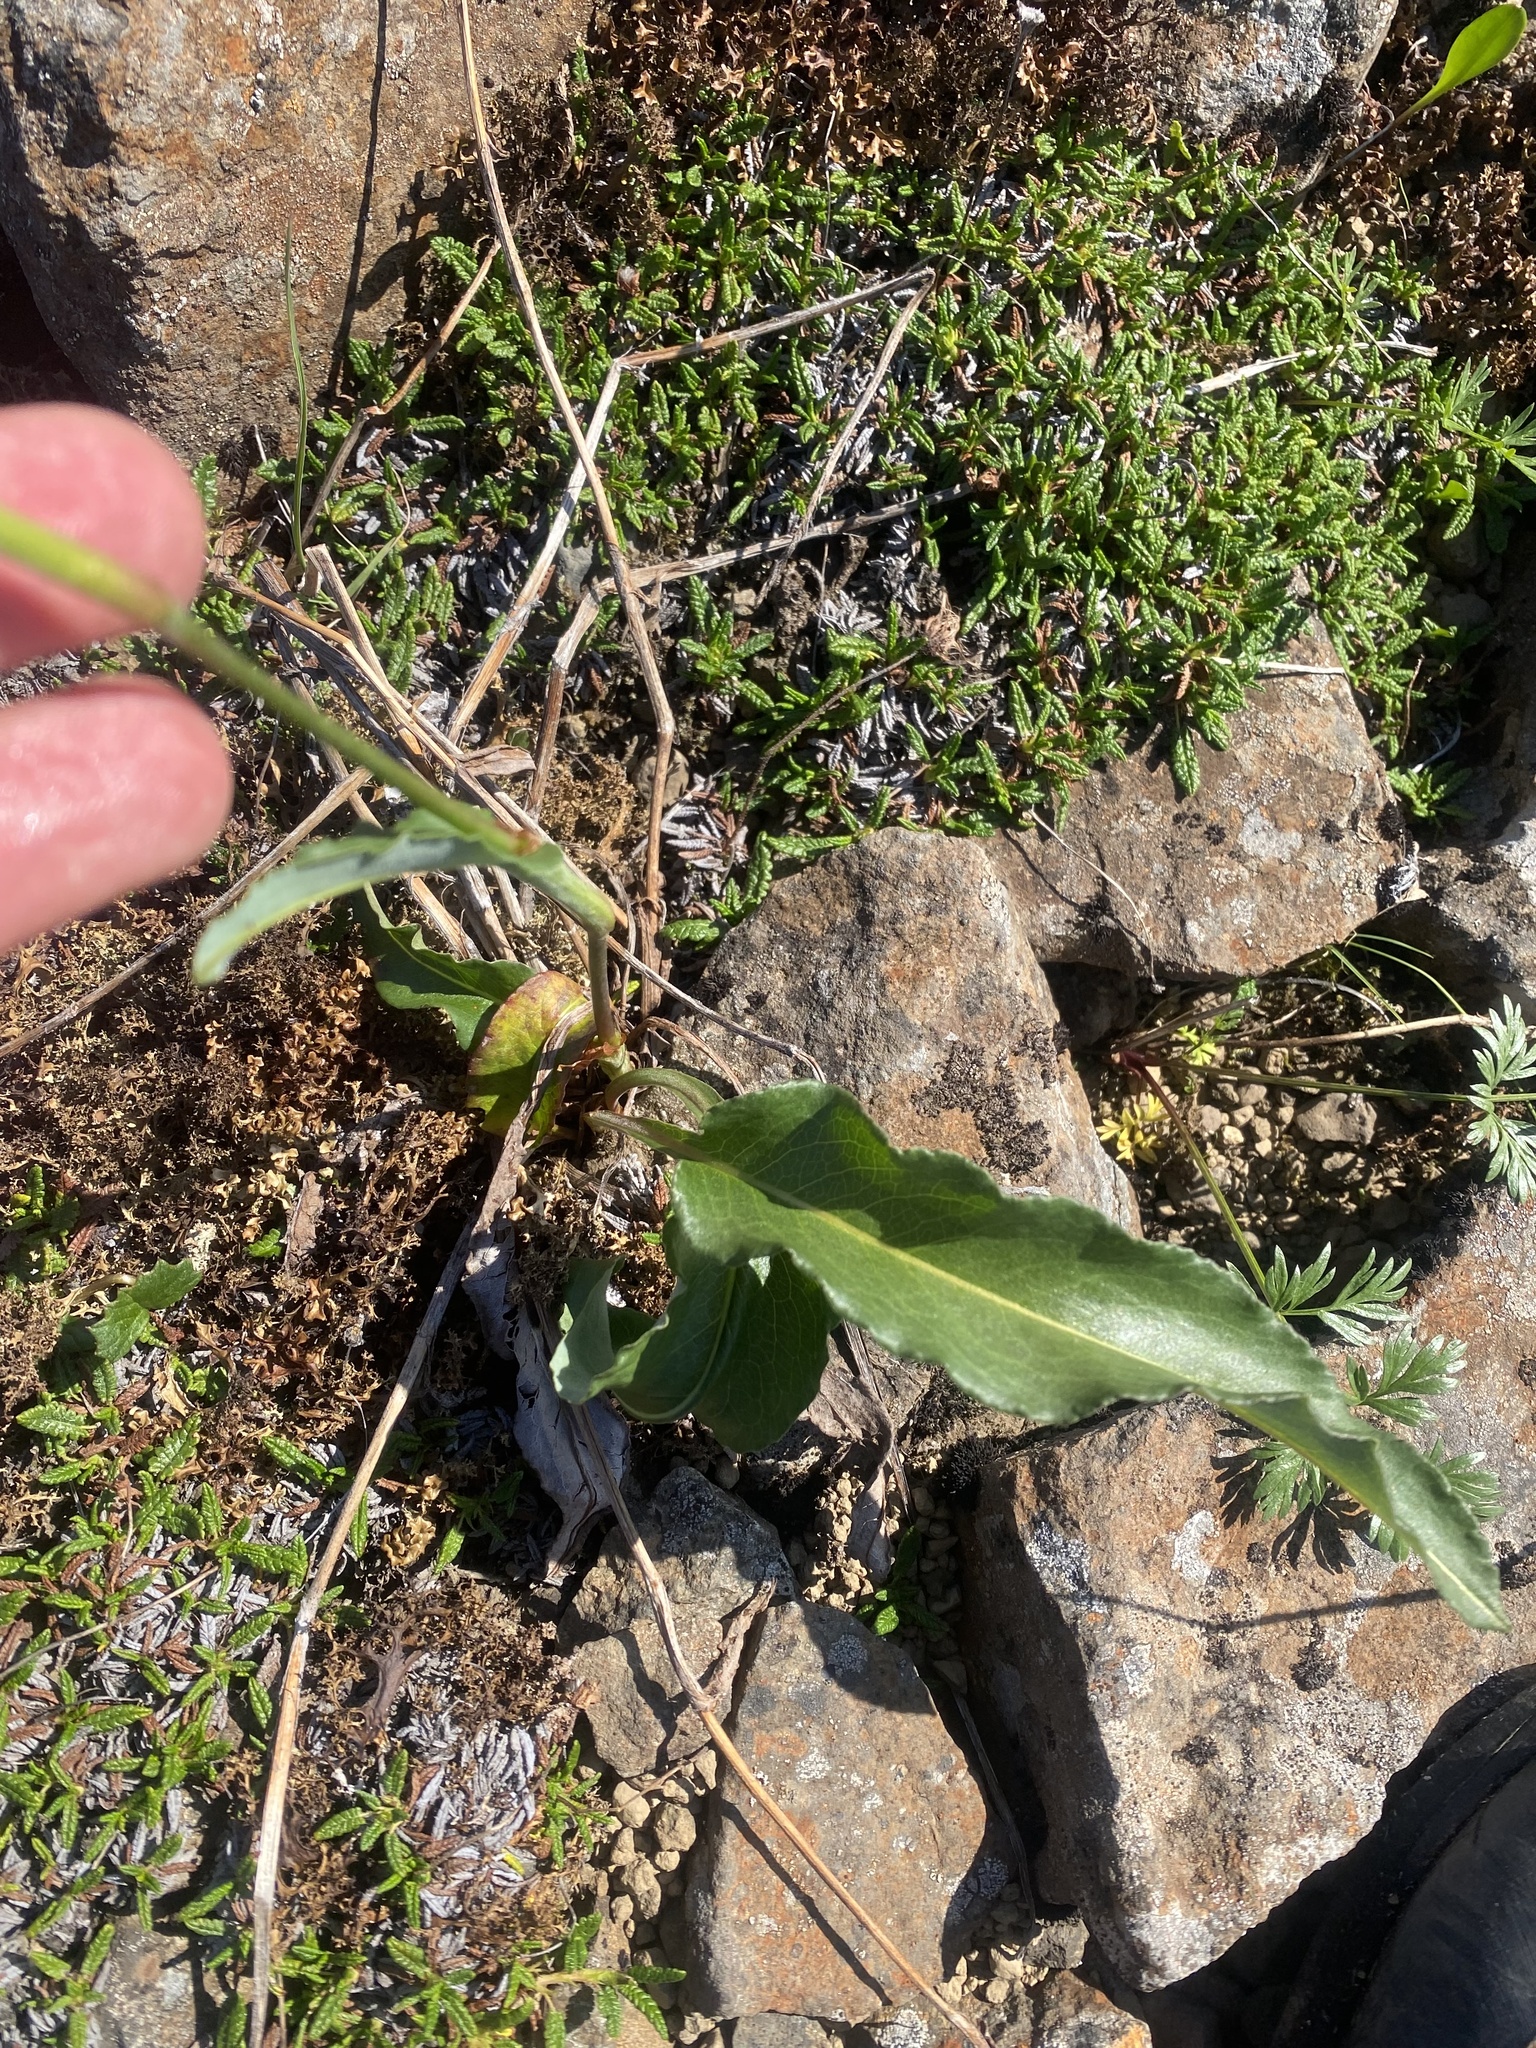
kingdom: Plantae
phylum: Tracheophyta
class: Magnoliopsida
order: Caryophyllales
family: Polygonaceae
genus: Bistorta
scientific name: Bistorta officinalis
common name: Common bistort
